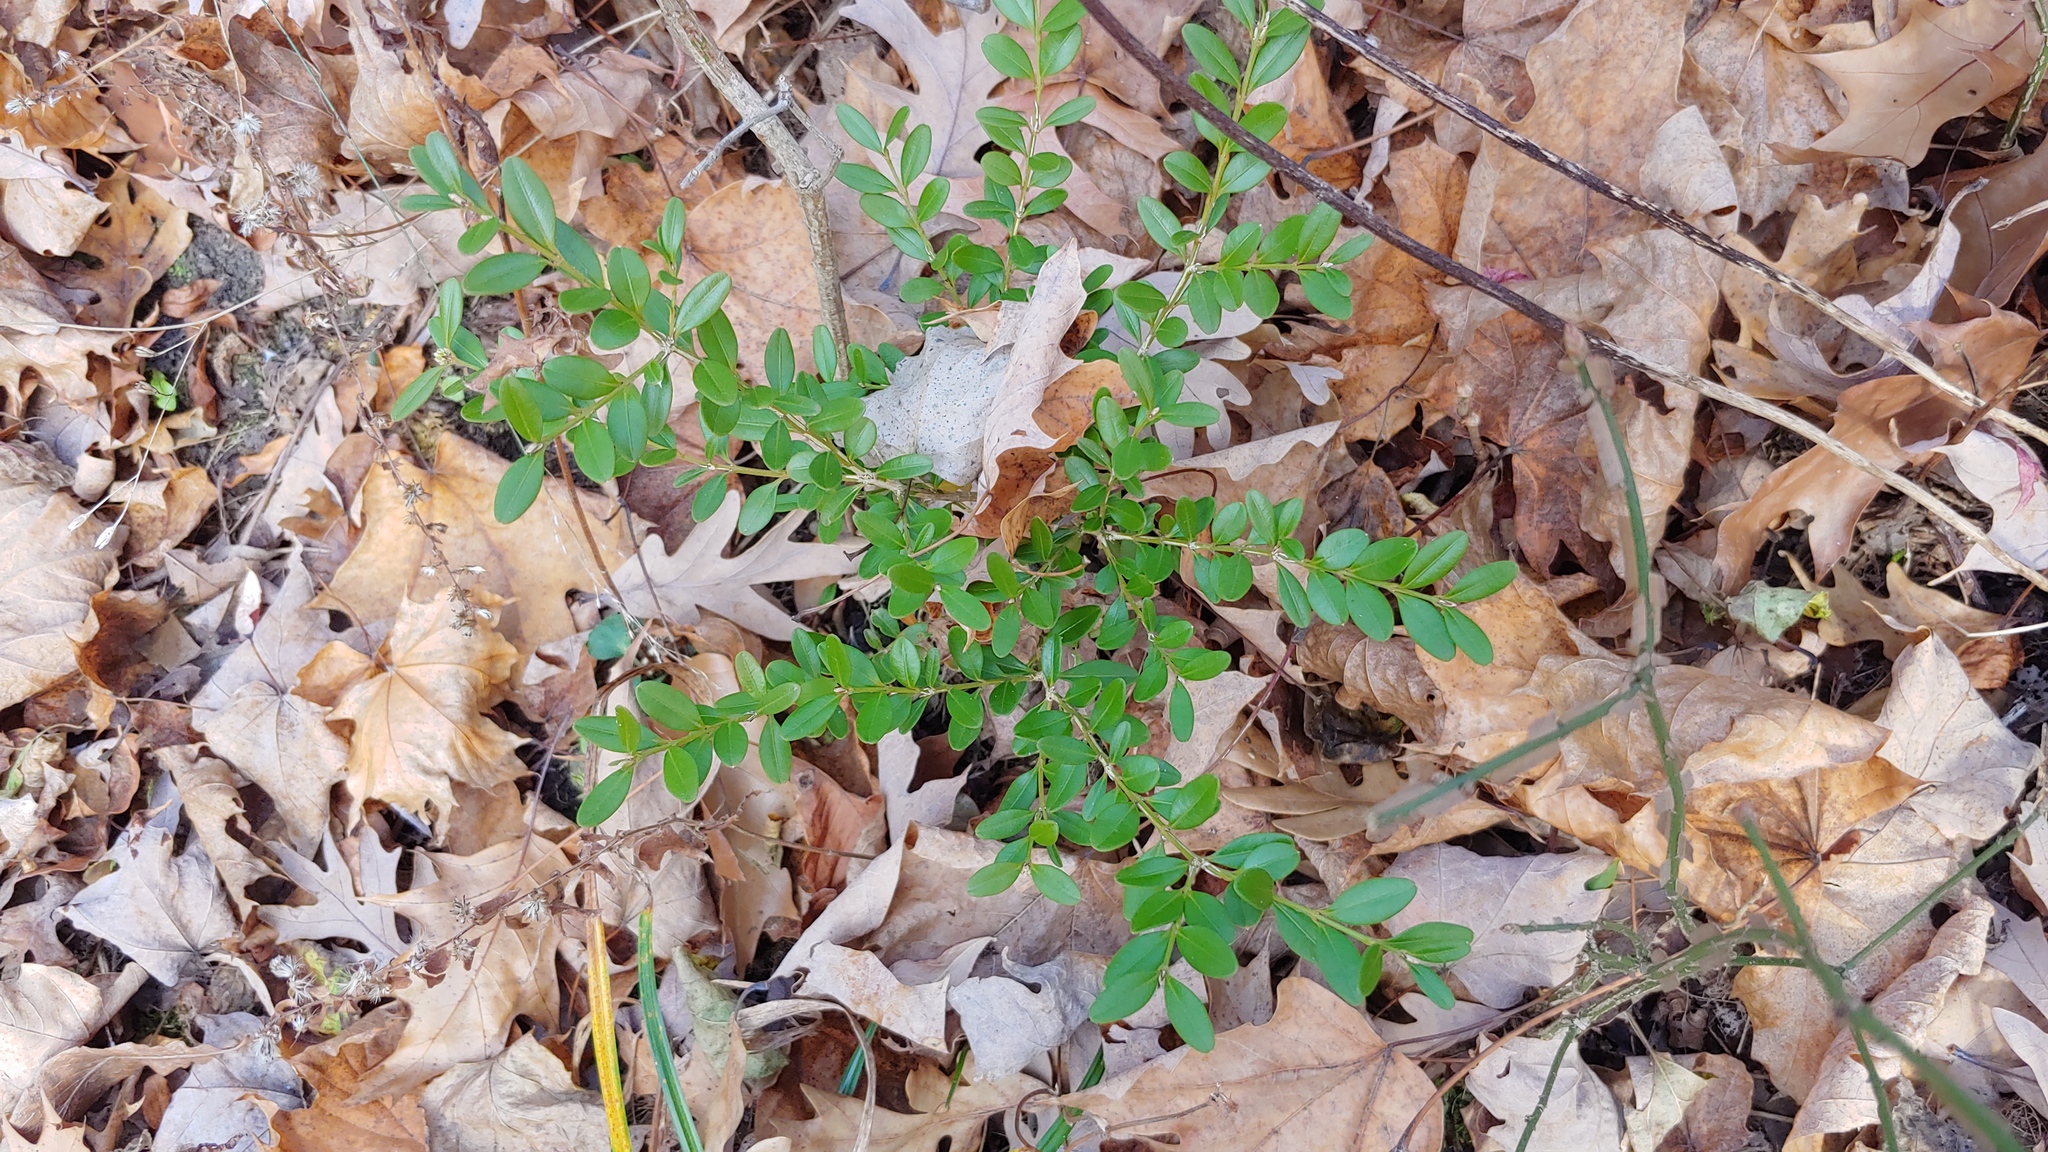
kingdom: Plantae
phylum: Tracheophyta
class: Magnoliopsida
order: Buxales
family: Buxaceae
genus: Buxus
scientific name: Buxus sempervirens
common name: Box
